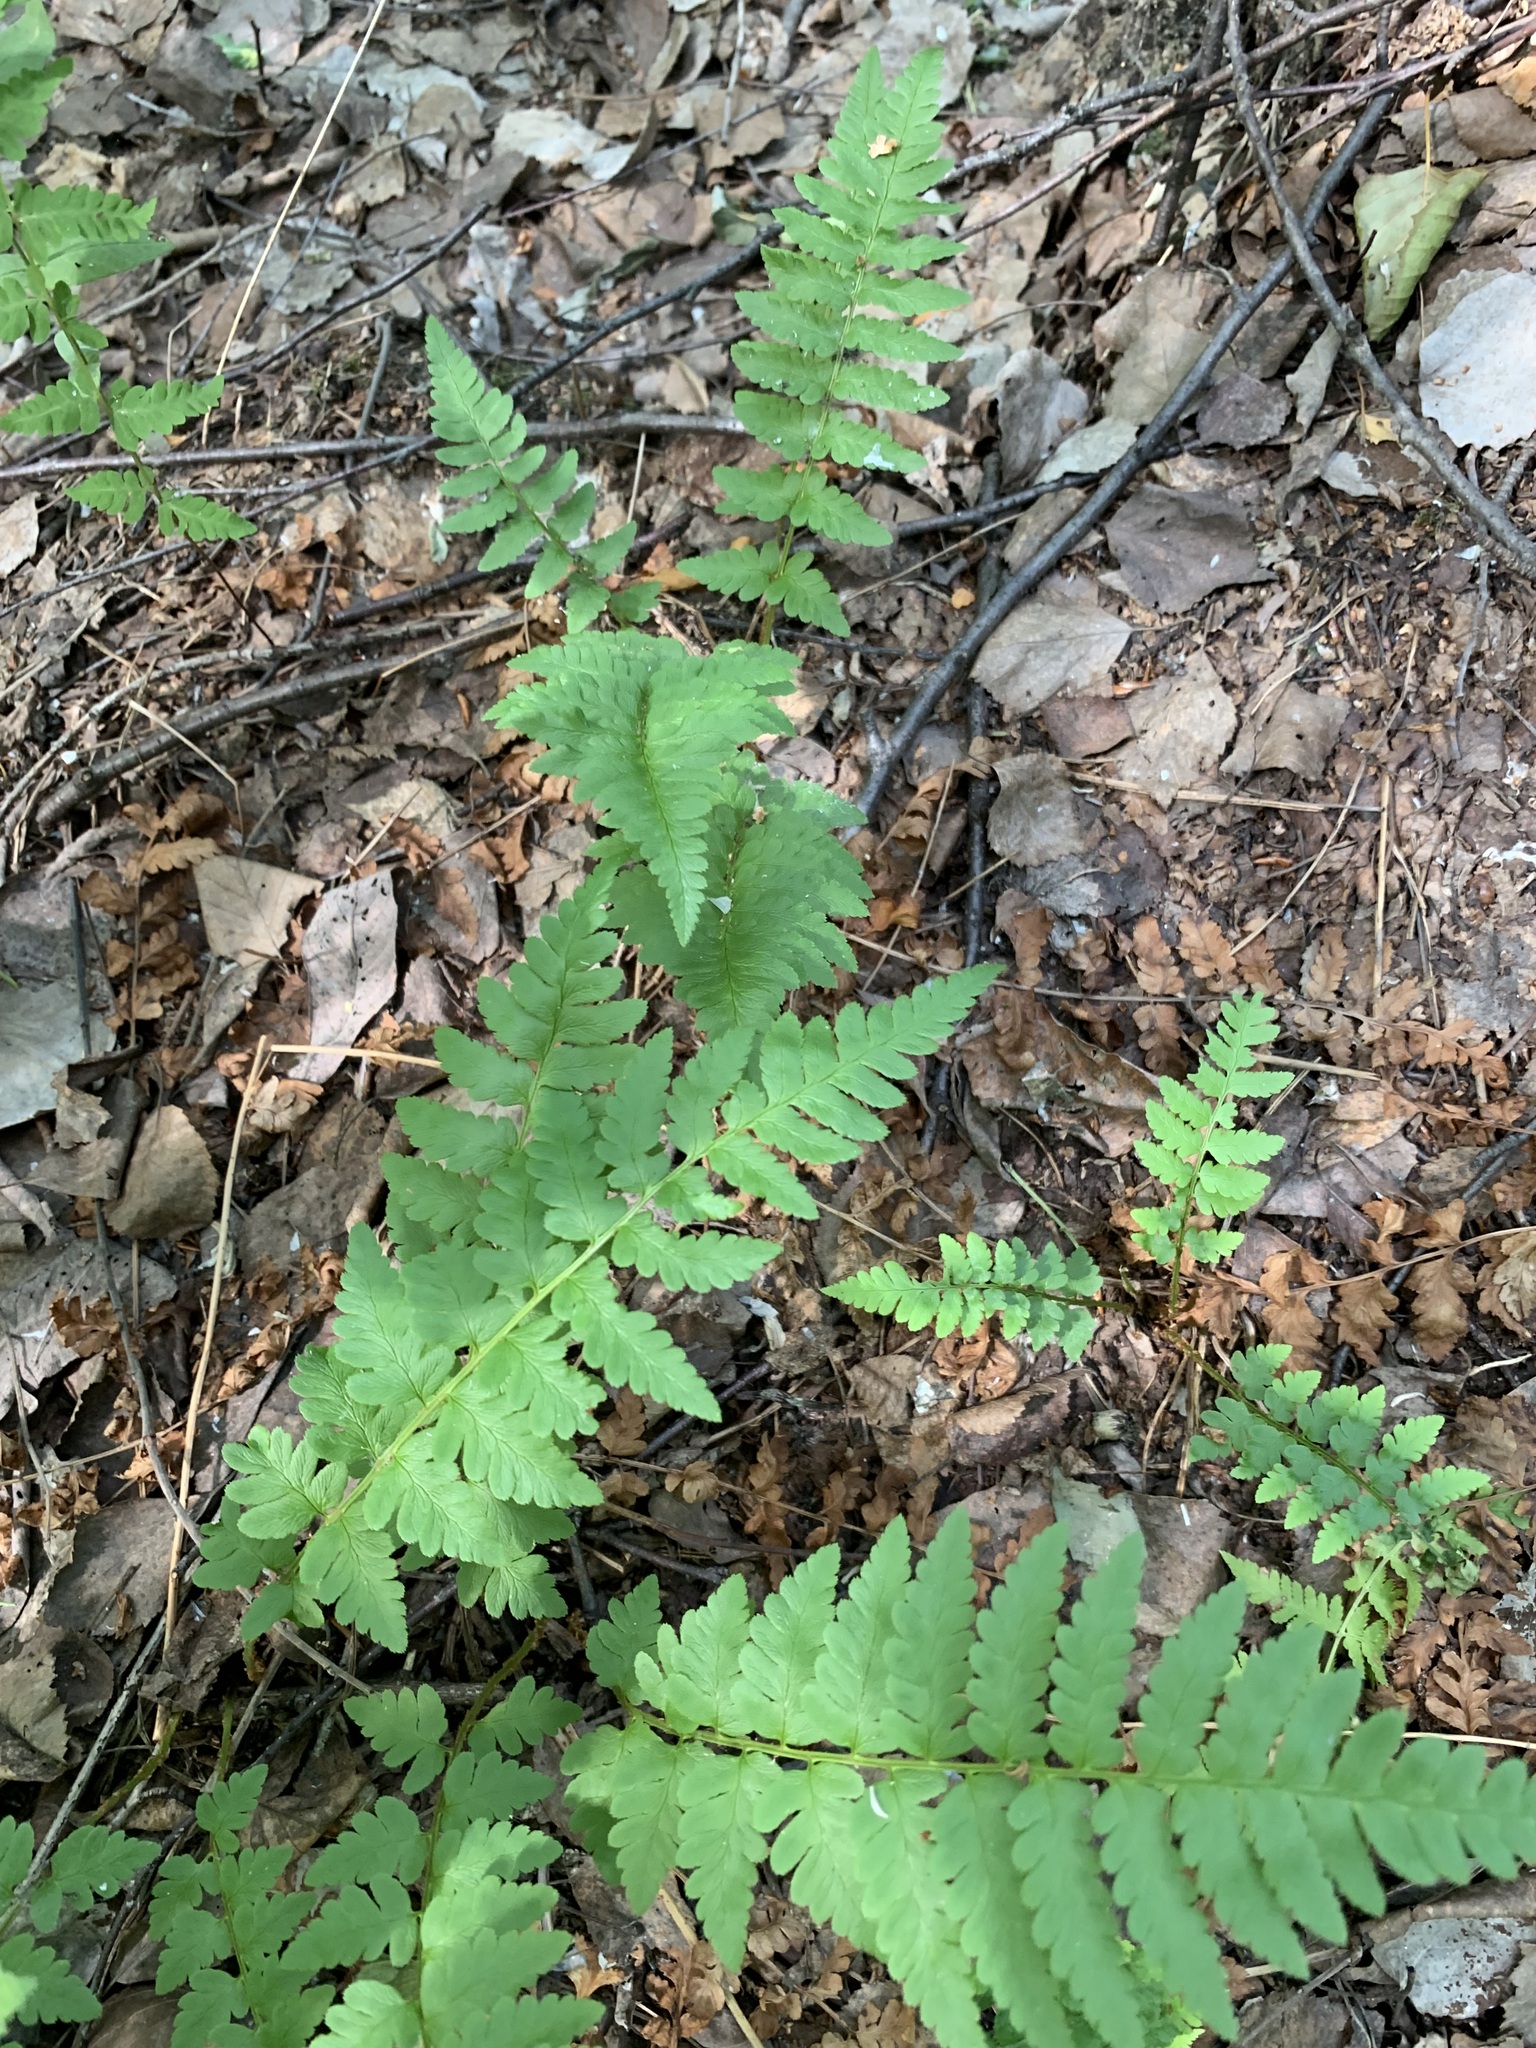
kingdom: Plantae
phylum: Tracheophyta
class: Polypodiopsida
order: Polypodiales
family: Dryopteridaceae
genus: Dryopteris
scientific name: Dryopteris cristata
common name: Crested wood fern
